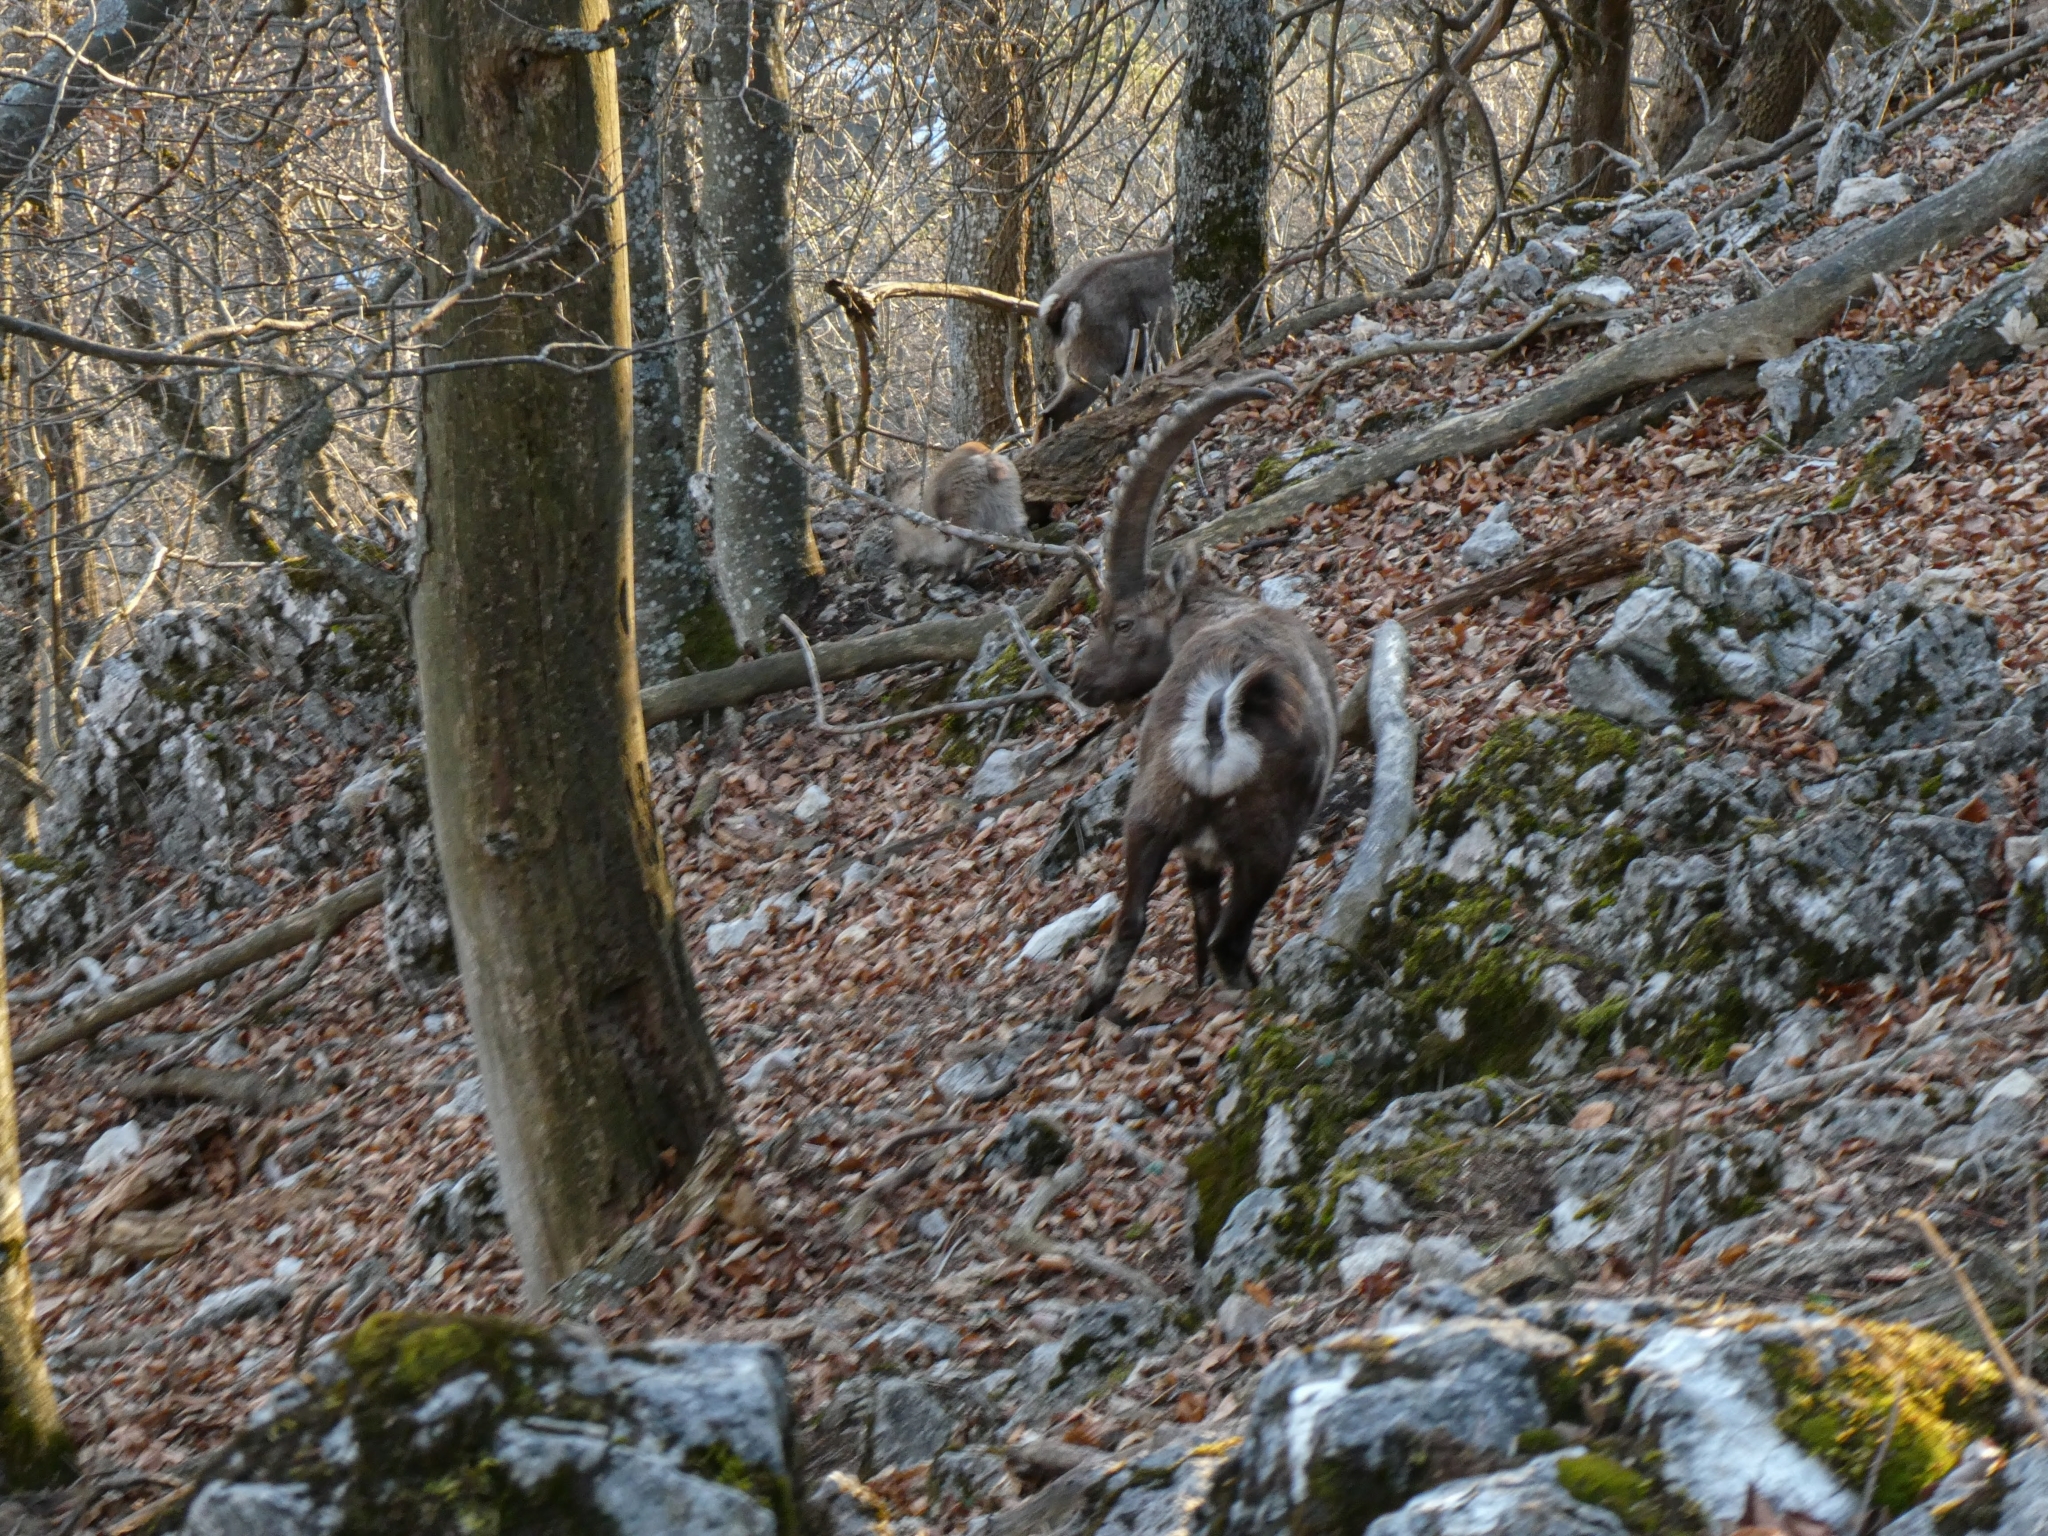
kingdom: Animalia
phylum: Chordata
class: Mammalia
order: Artiodactyla
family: Bovidae
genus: Capra
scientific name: Capra ibex
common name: Alpine ibex
